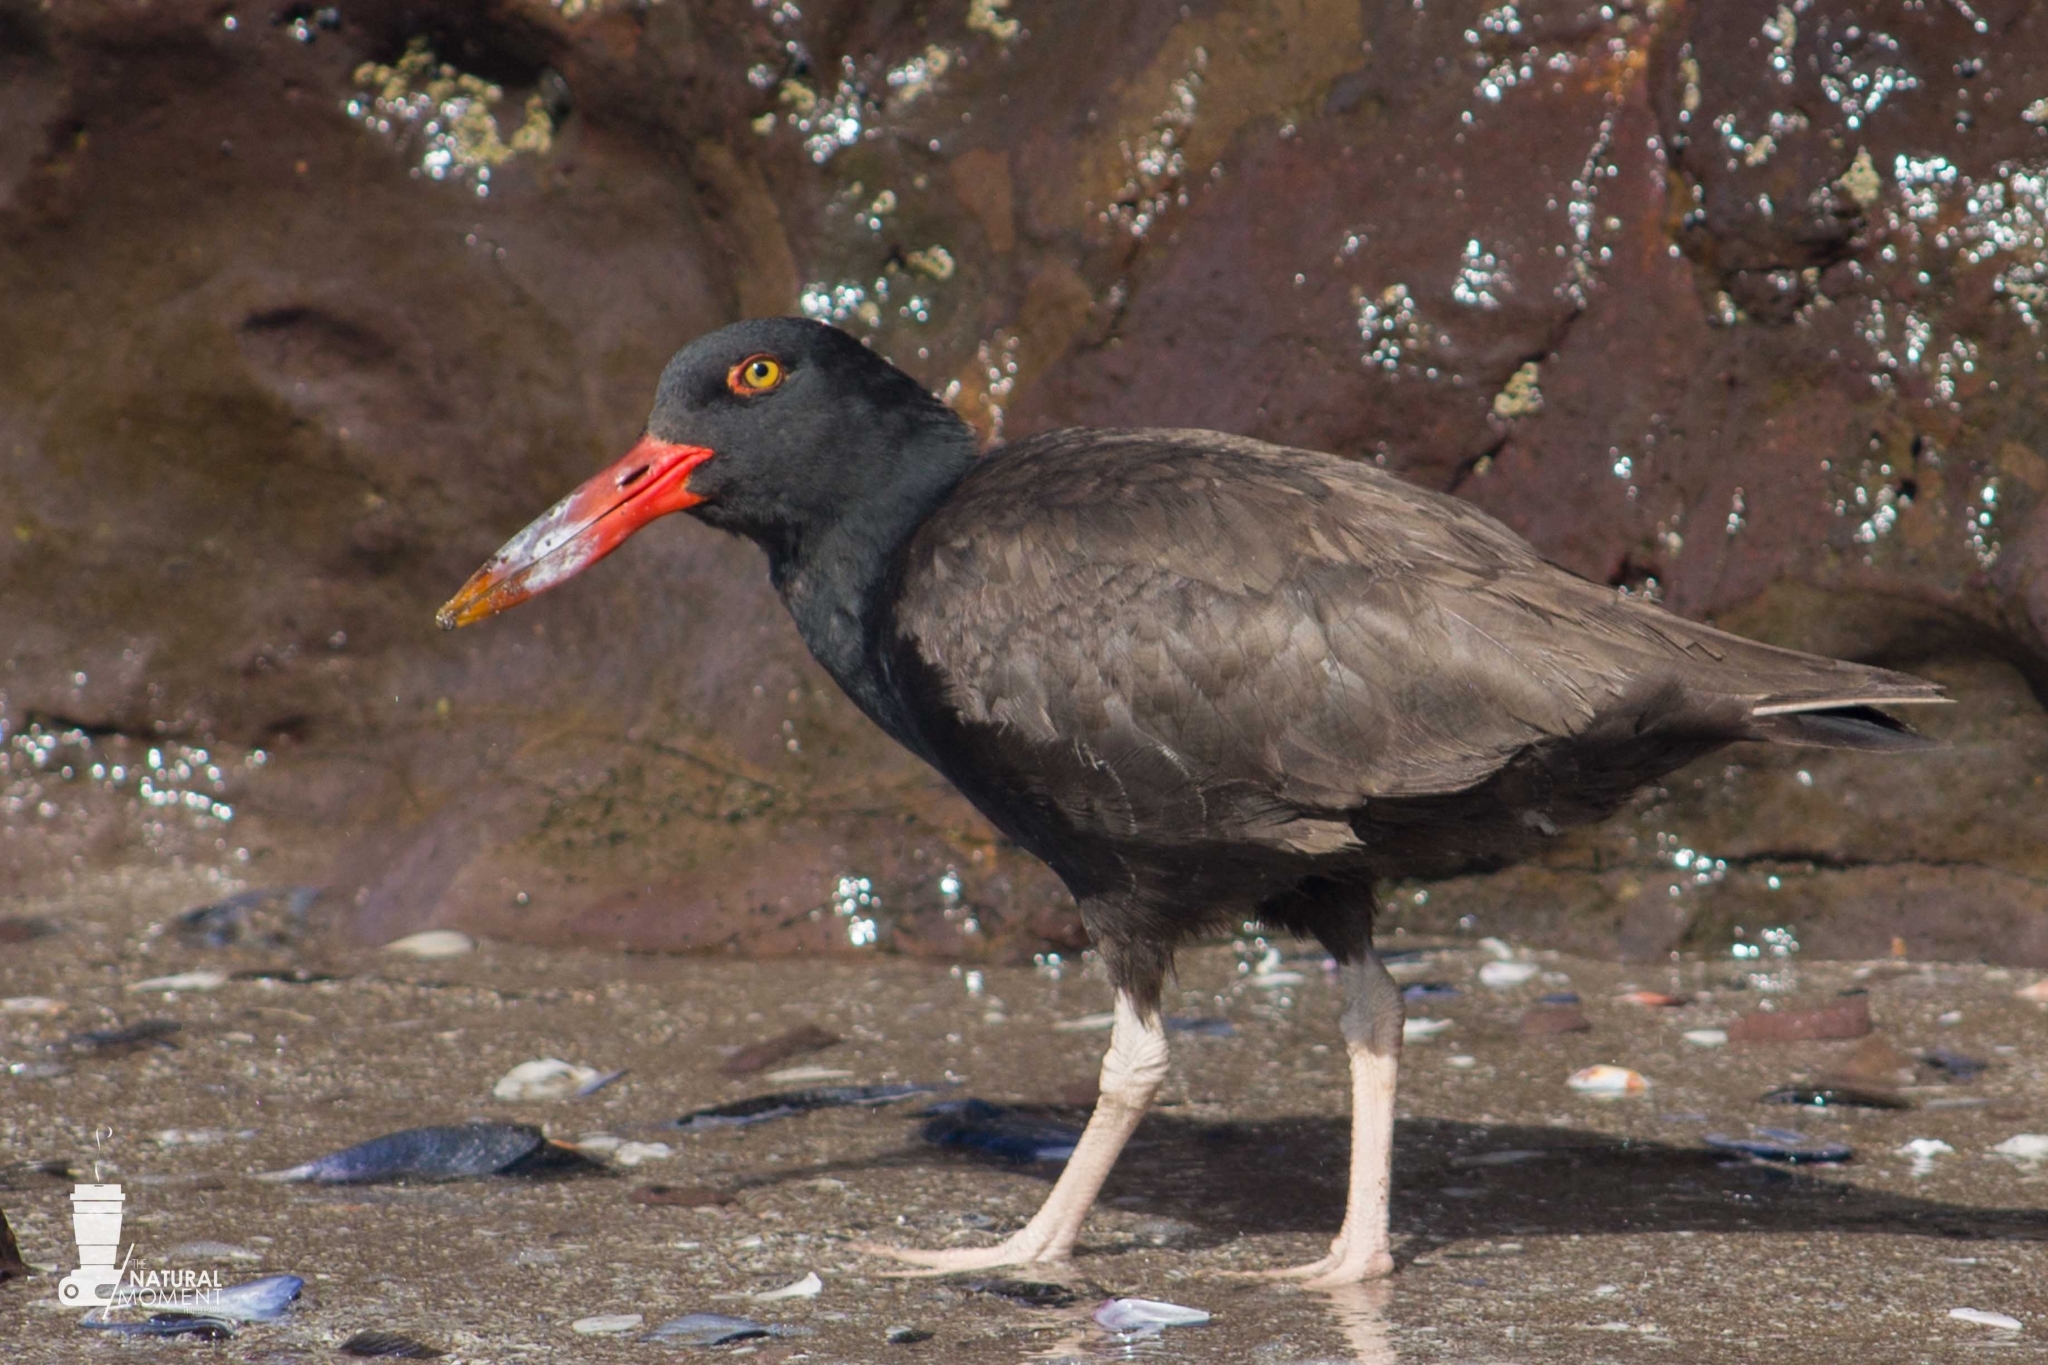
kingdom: Animalia
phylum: Chordata
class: Aves
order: Charadriiformes
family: Haematopodidae
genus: Haematopus
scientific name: Haematopus ater
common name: Blackish oystercatcher
